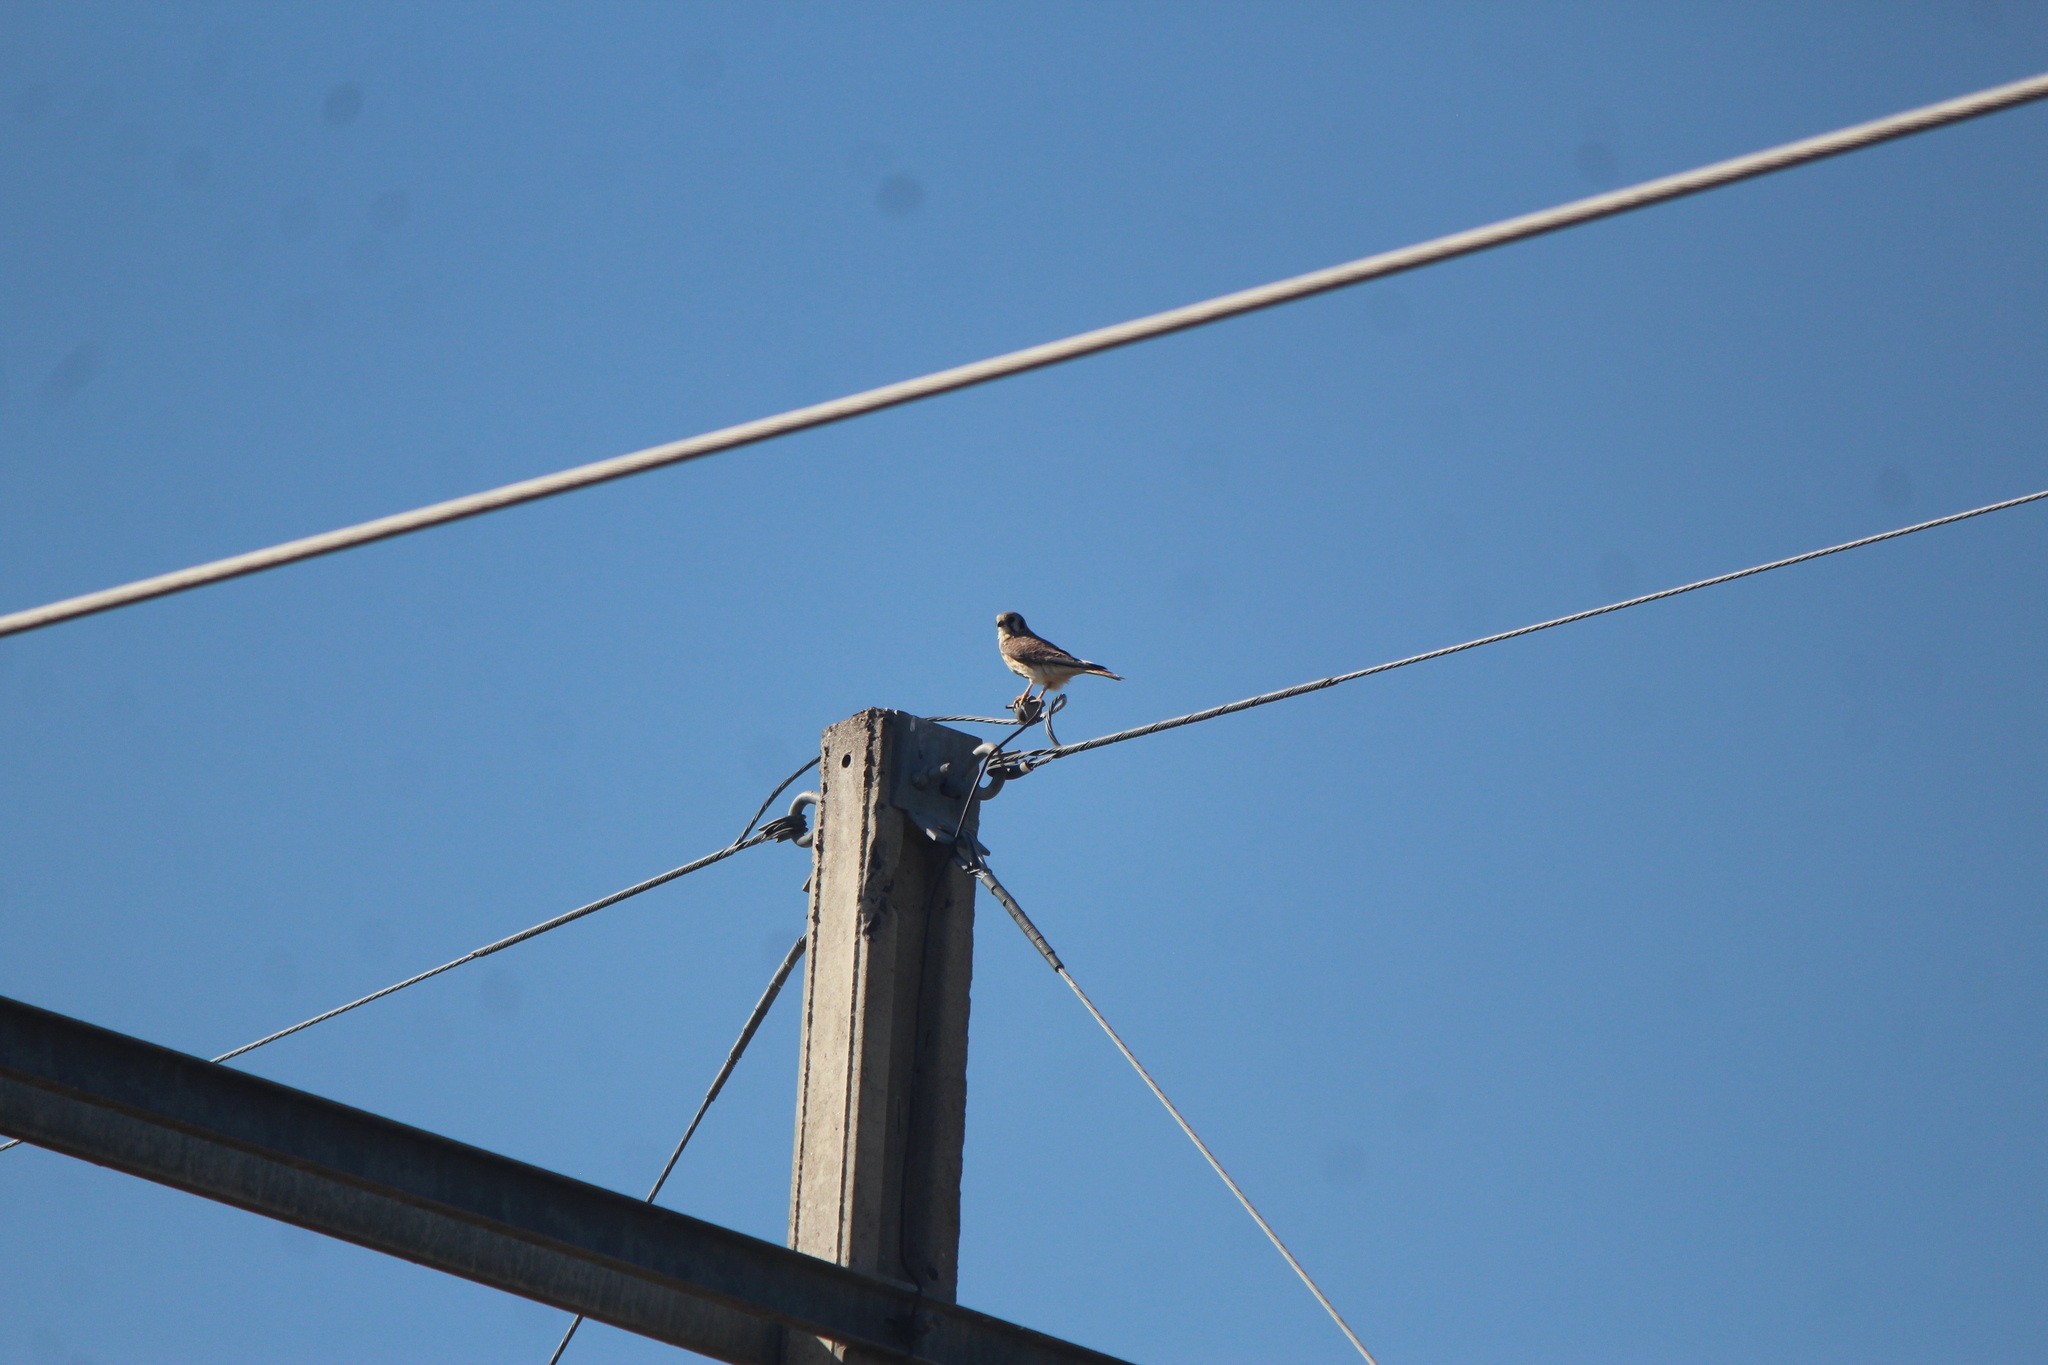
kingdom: Animalia
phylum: Chordata
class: Aves
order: Falconiformes
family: Falconidae
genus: Falco
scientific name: Falco sparverius
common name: American kestrel
